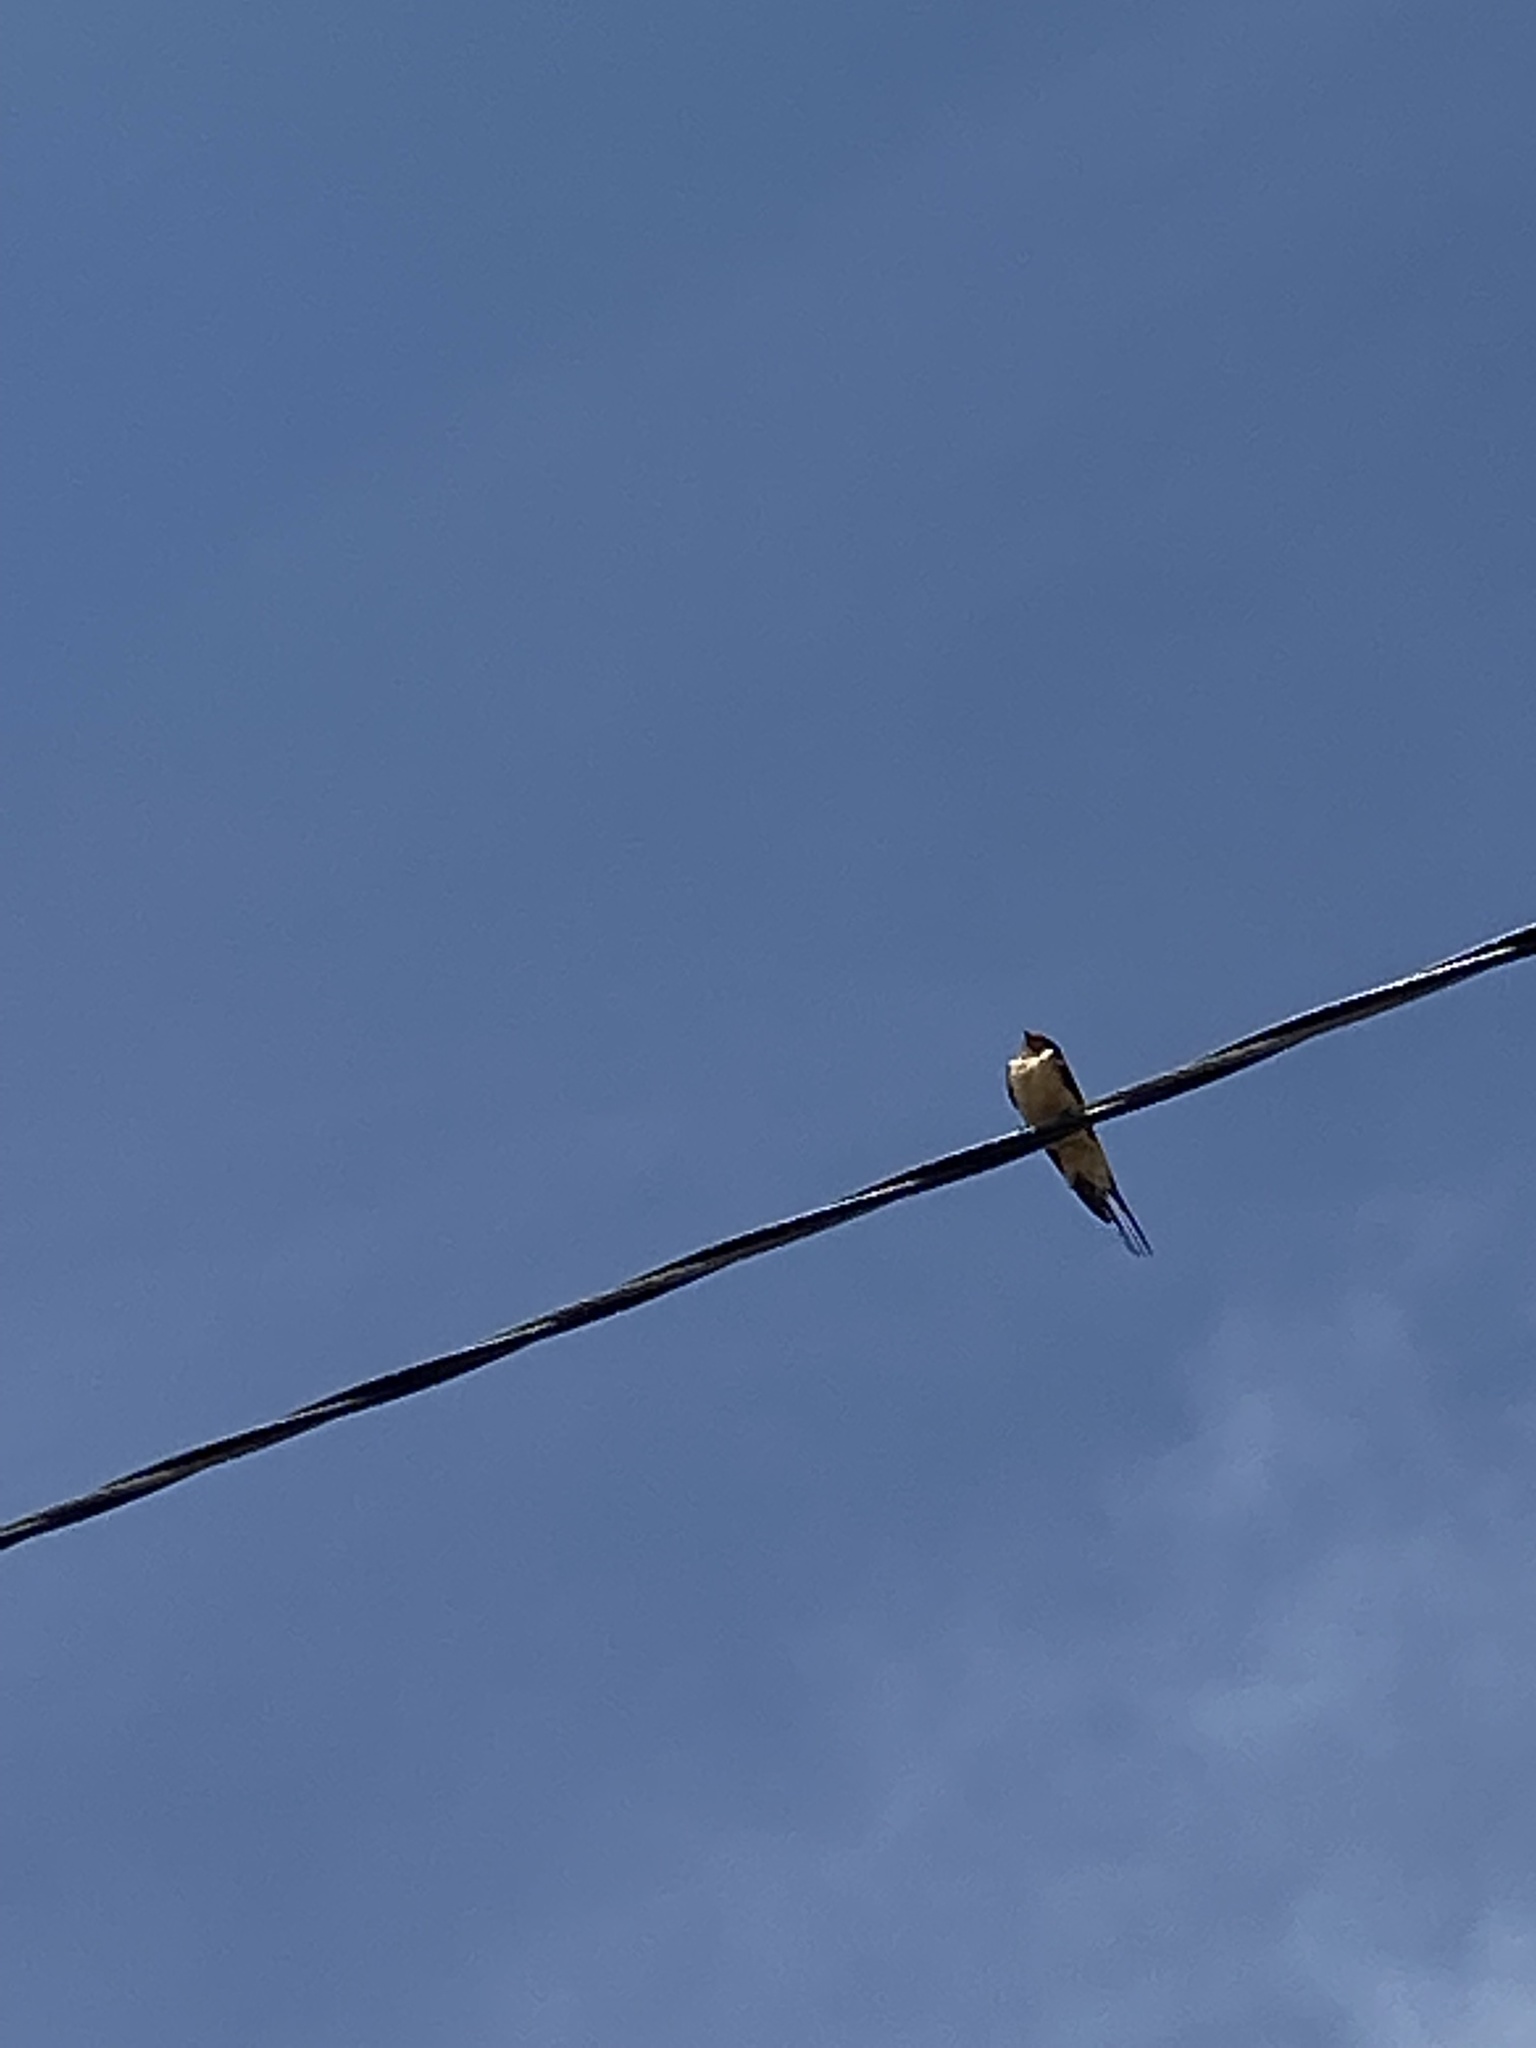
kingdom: Animalia
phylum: Chordata
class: Aves
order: Passeriformes
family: Hirundinidae
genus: Hirundo
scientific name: Hirundo rustica
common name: Barn swallow
